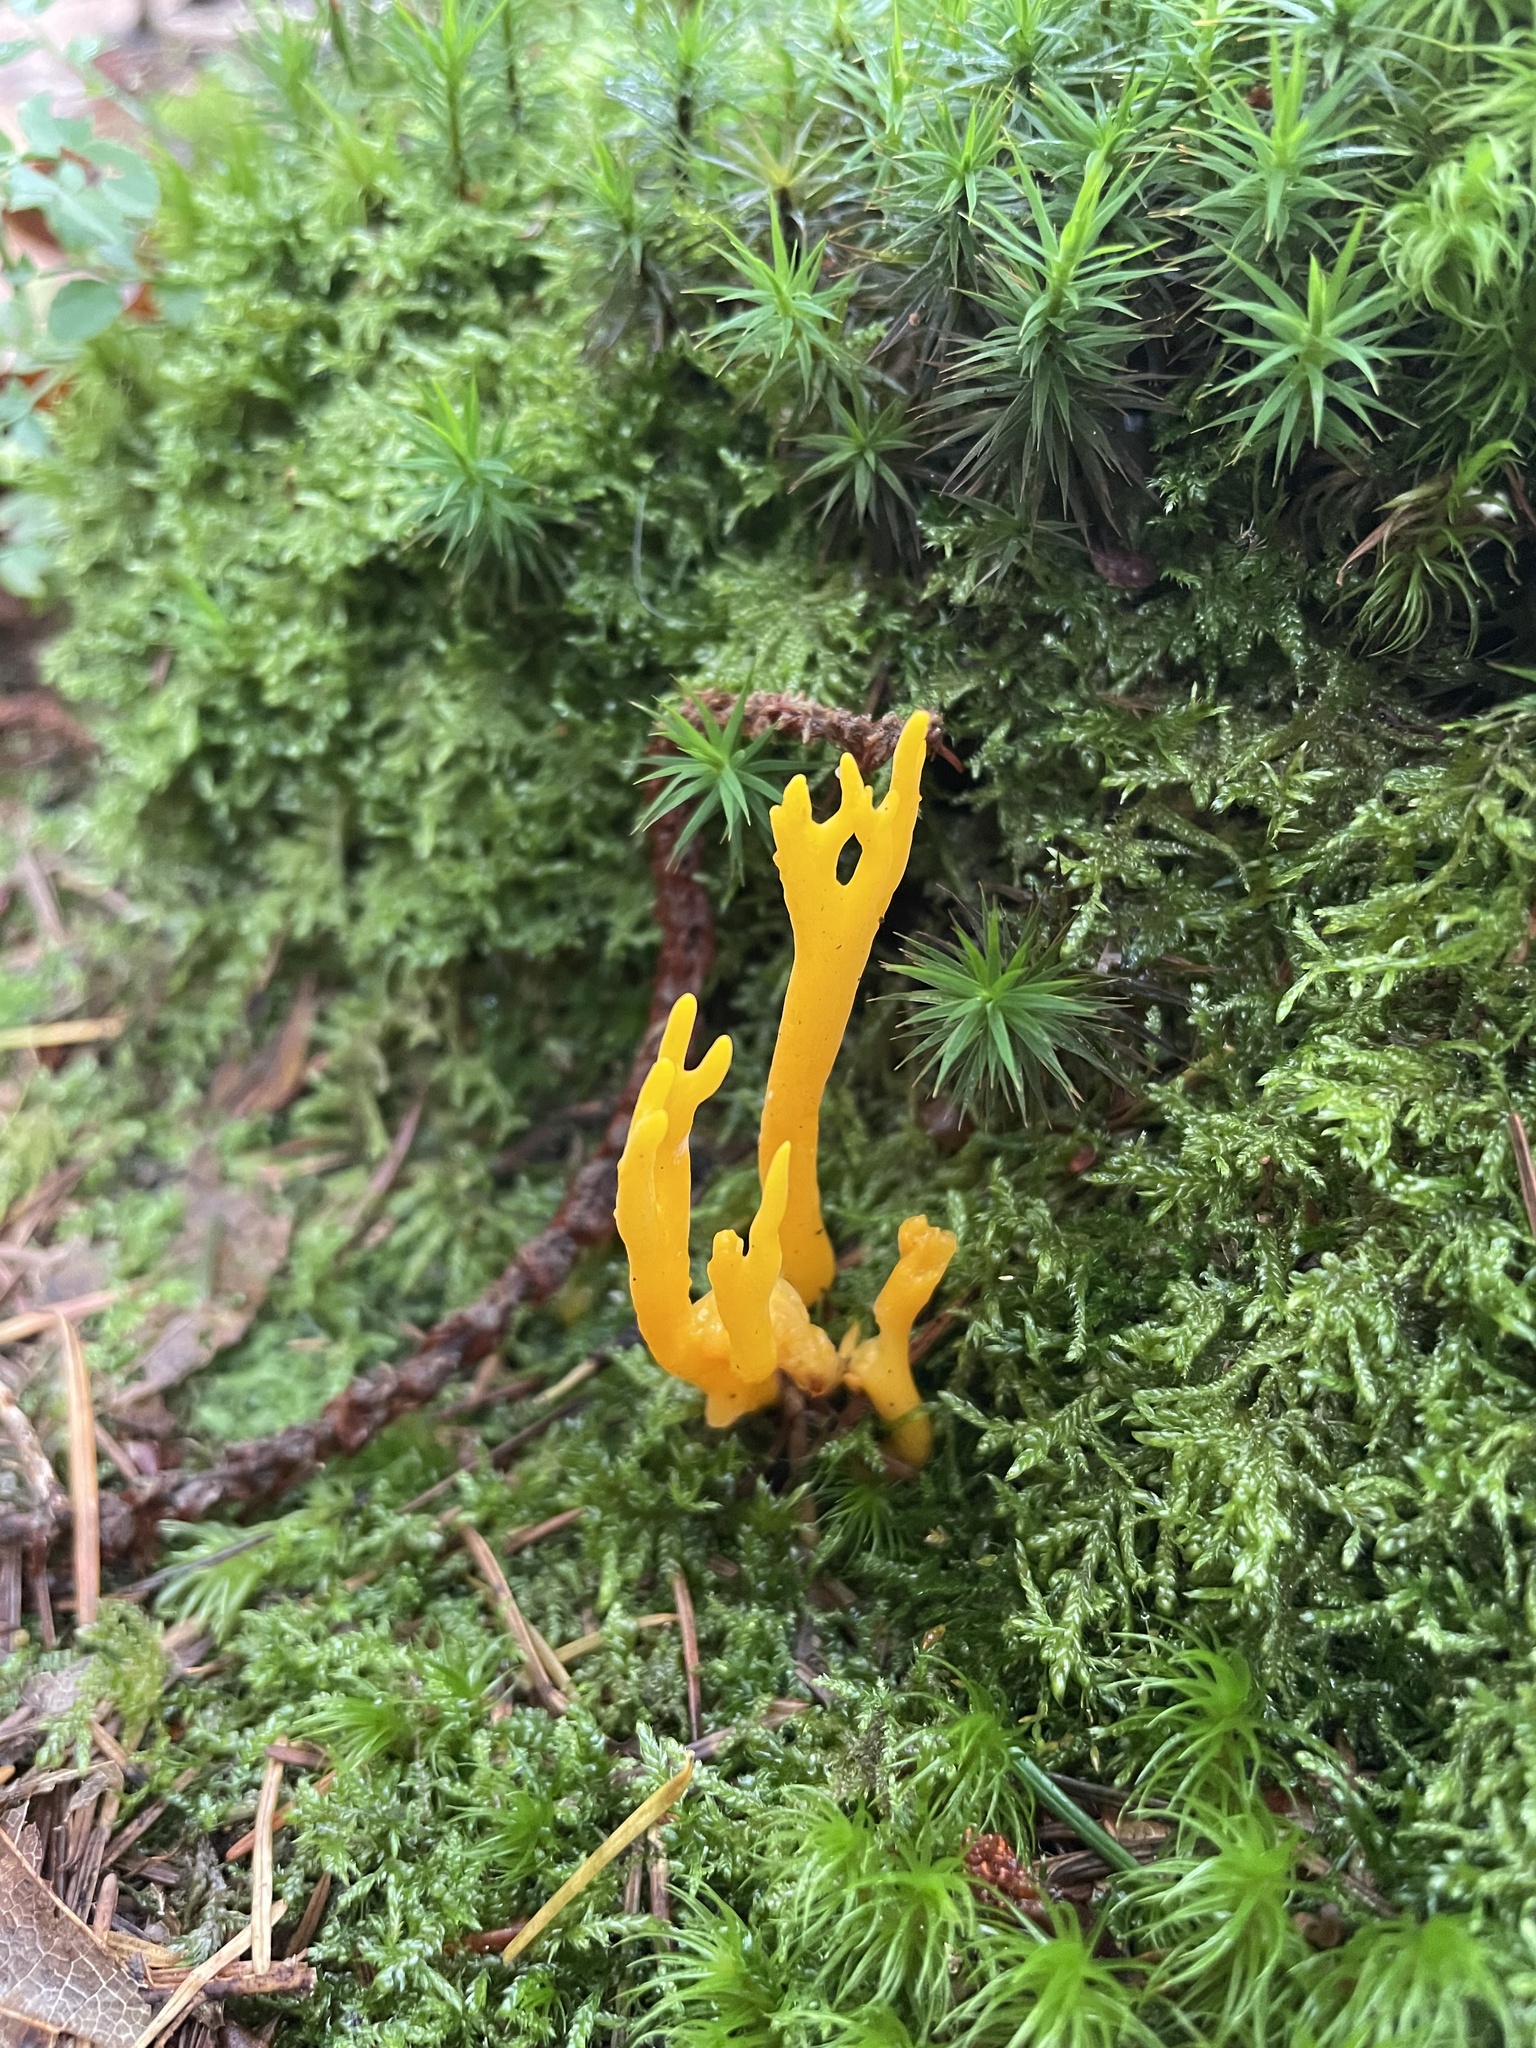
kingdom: Fungi
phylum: Basidiomycota
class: Dacrymycetes
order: Dacrymycetales
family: Dacrymycetaceae
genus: Calocera
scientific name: Calocera viscosa
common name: Yellow stagshorn
